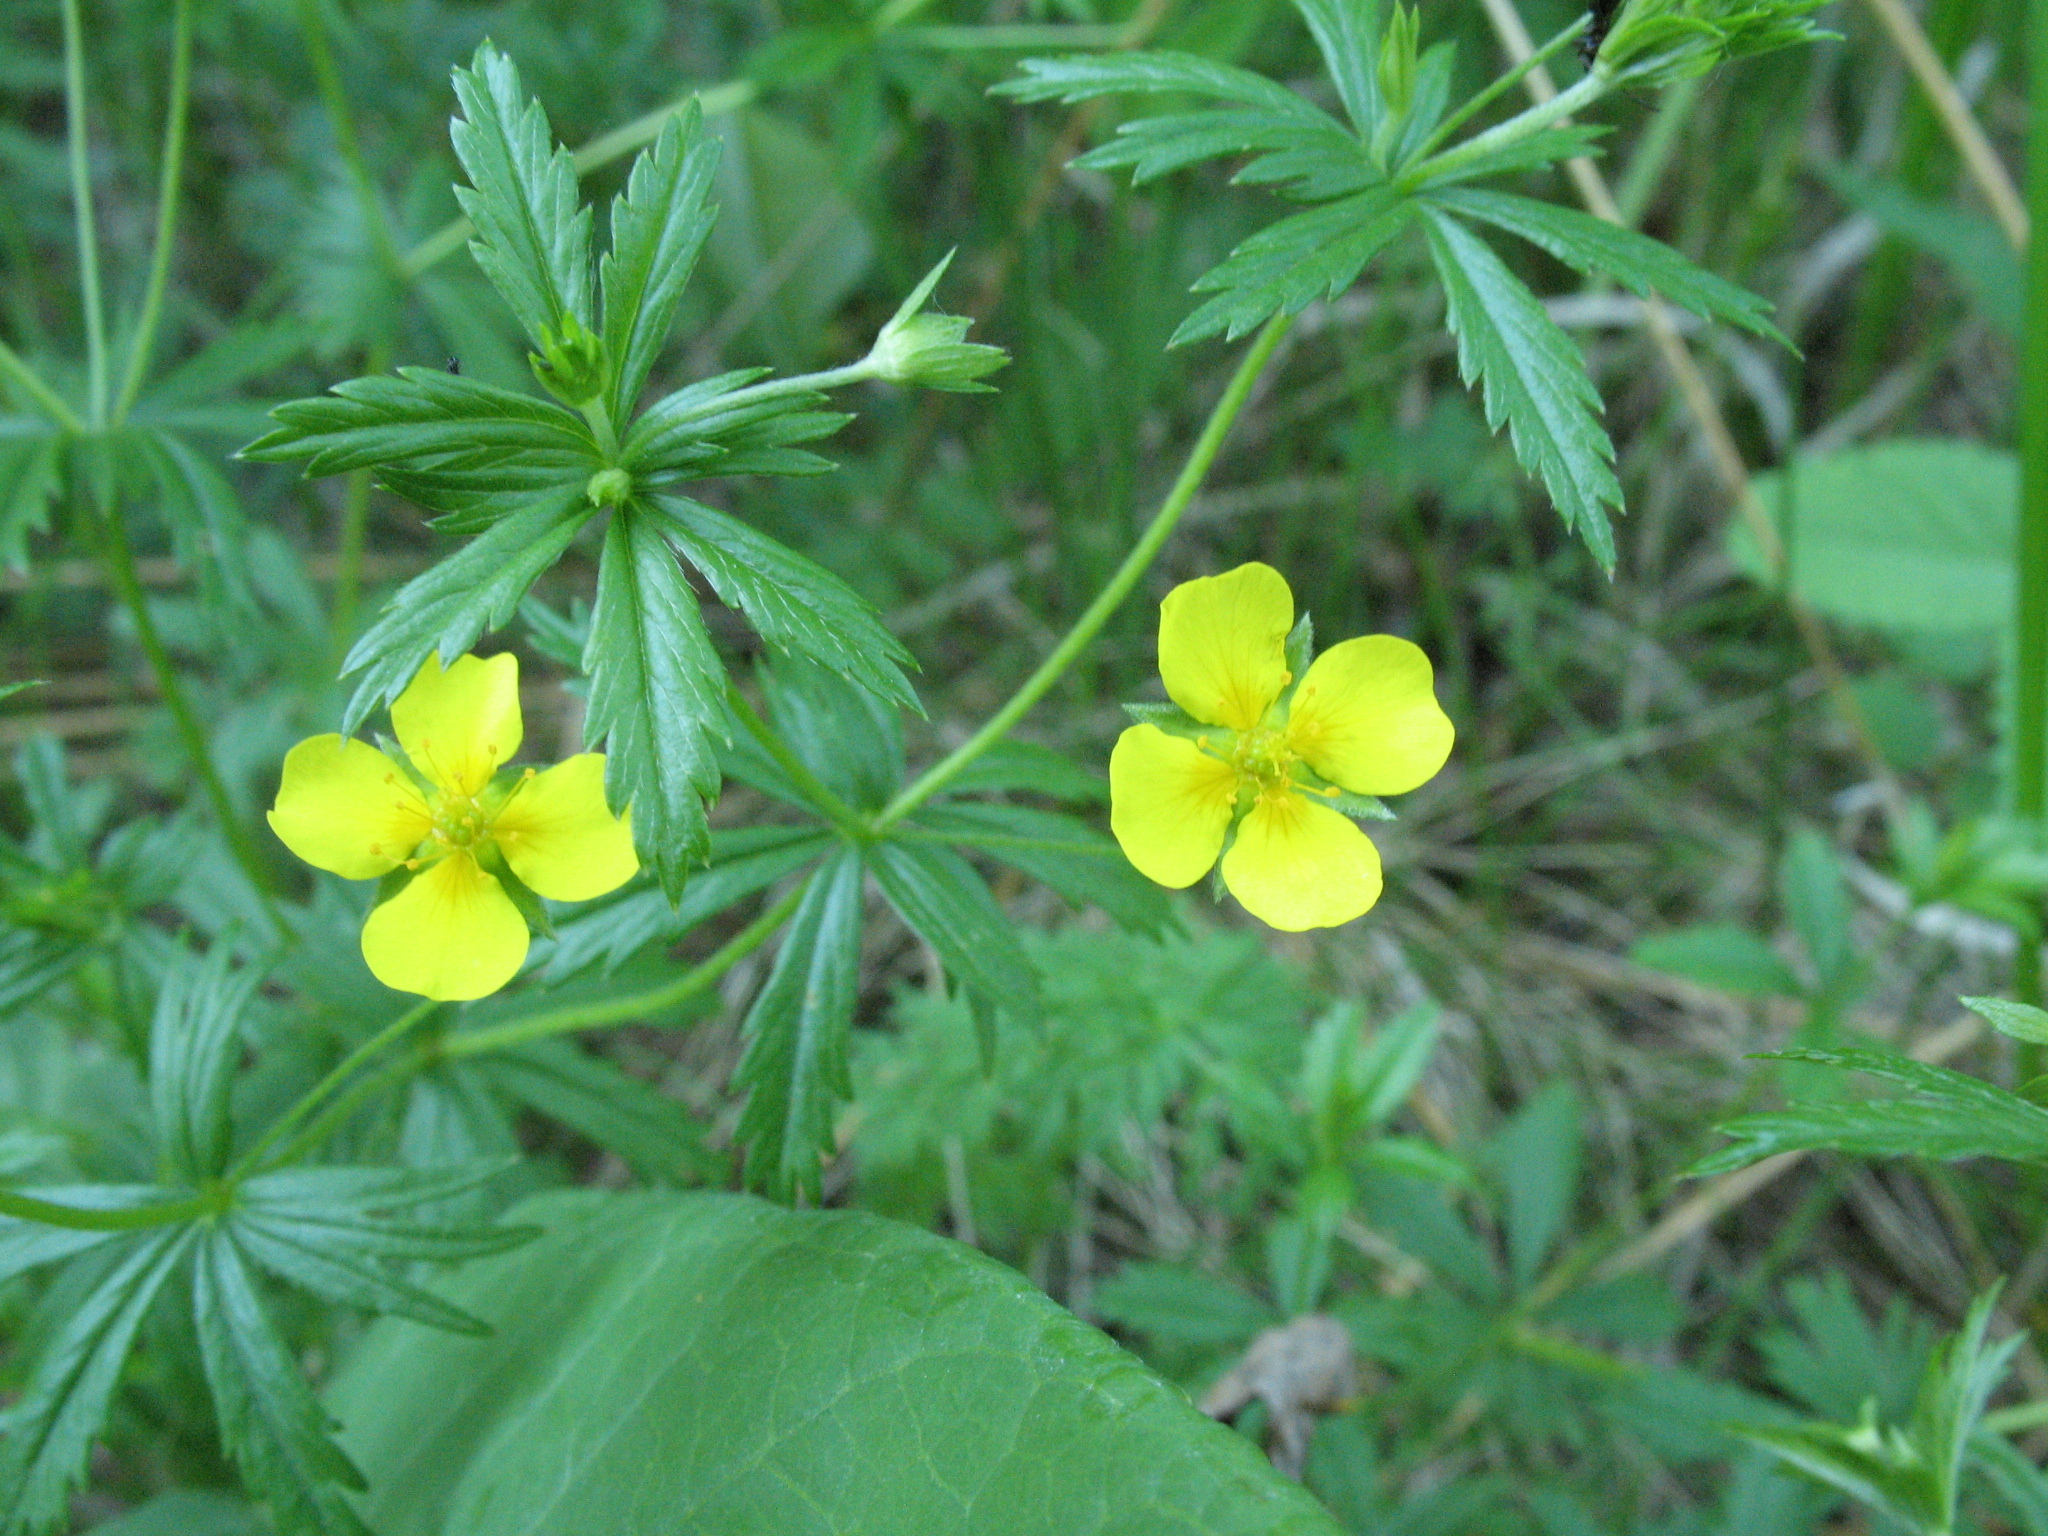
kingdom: Plantae
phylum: Tracheophyta
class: Magnoliopsida
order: Rosales
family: Rosaceae
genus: Potentilla
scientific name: Potentilla erecta
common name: Tormentil
